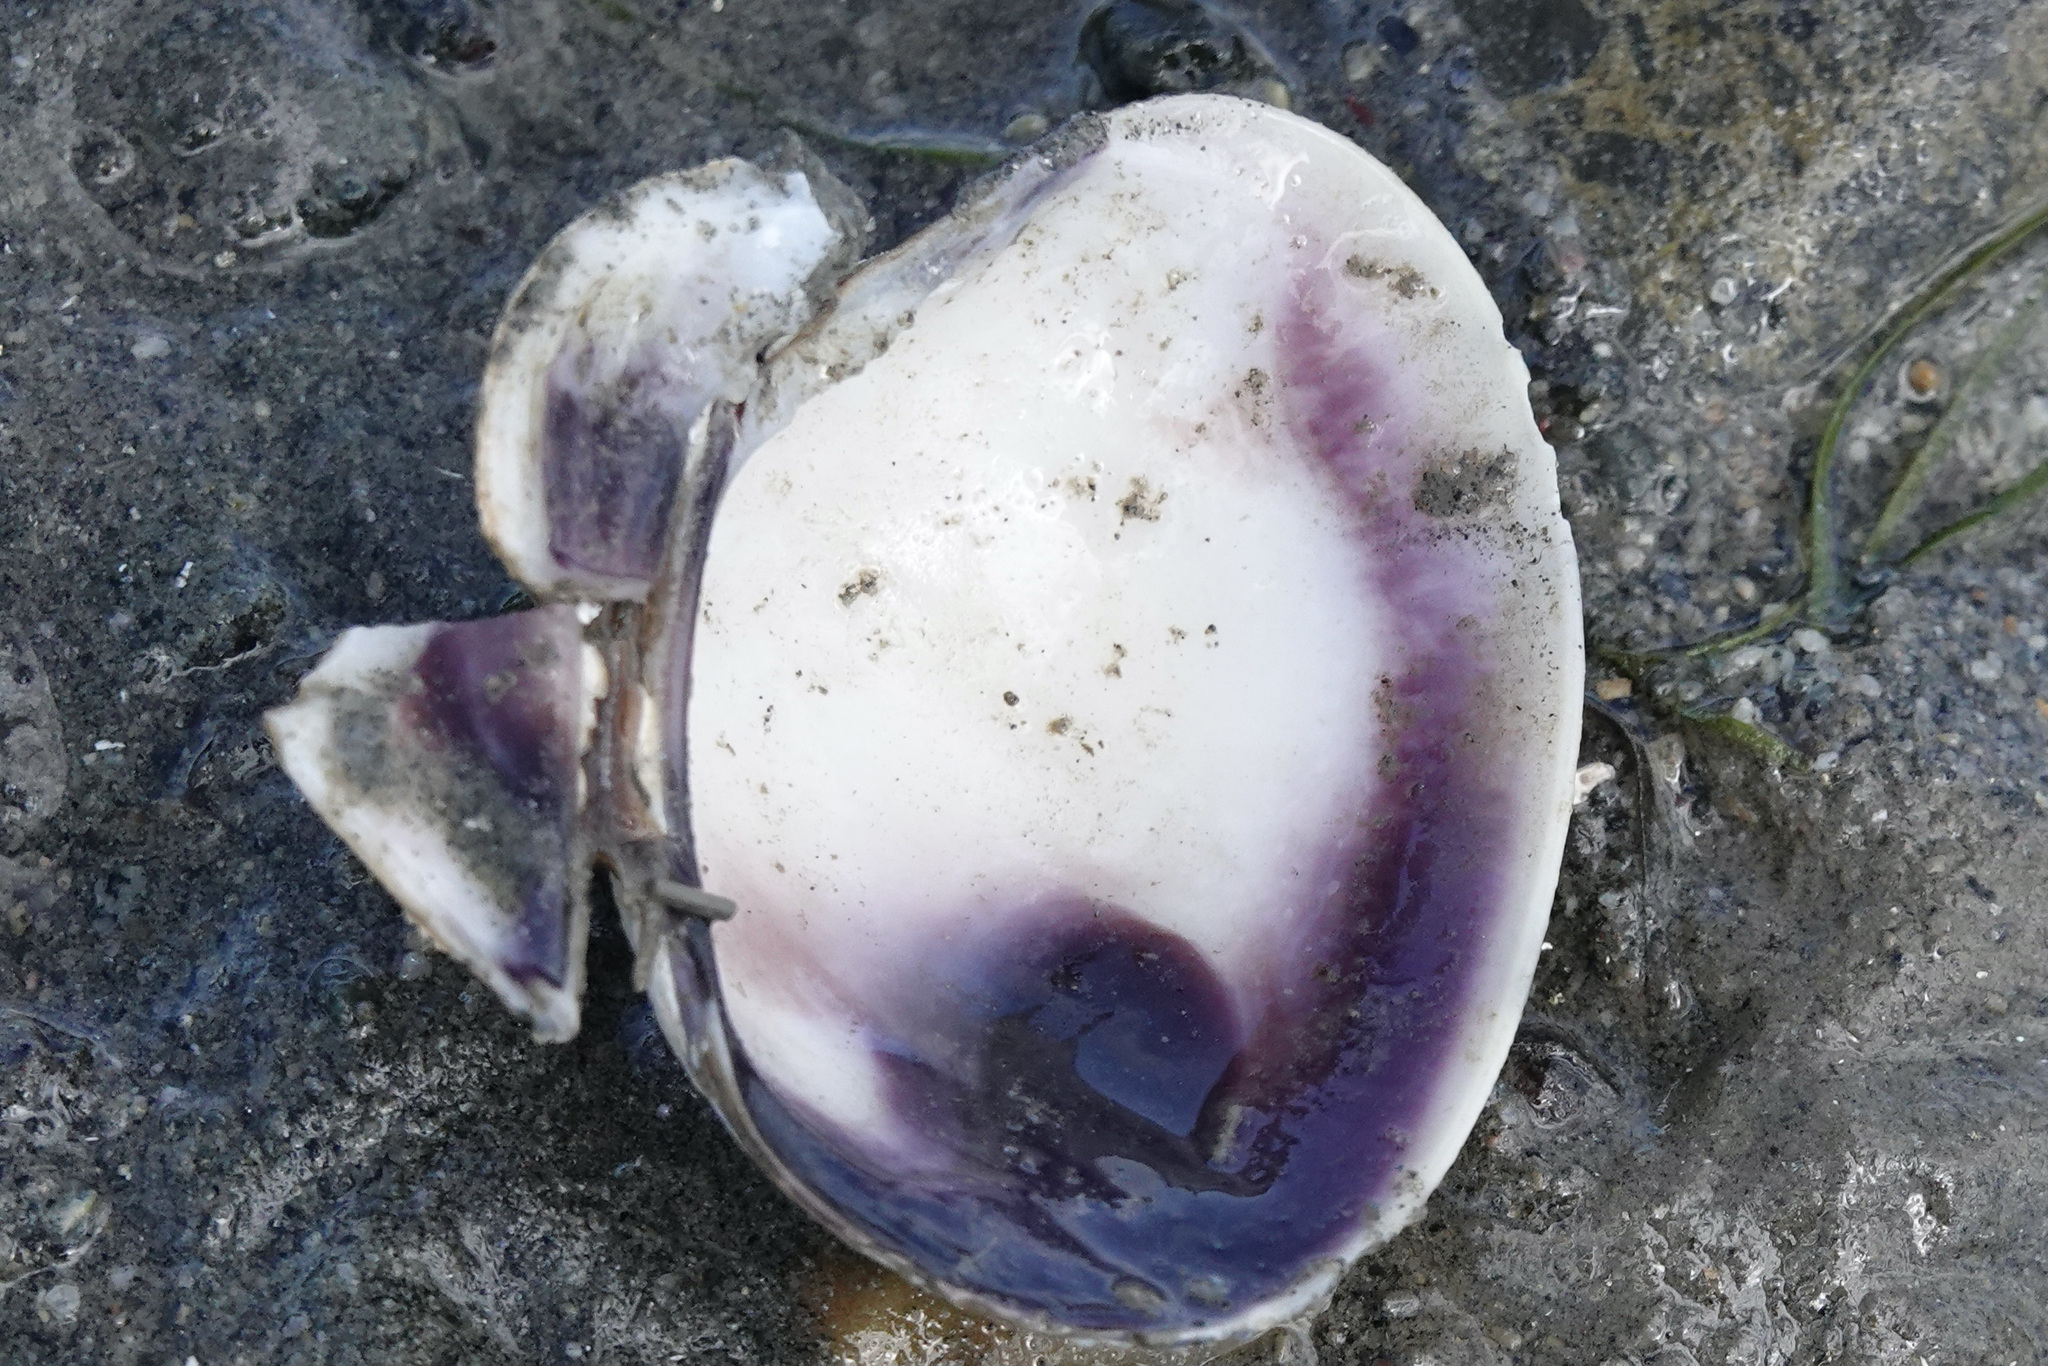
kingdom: Animalia
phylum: Mollusca
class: Bivalvia
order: Venerida
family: Veneridae
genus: Ruditapes
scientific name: Ruditapes philippinarum
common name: Manila clam
